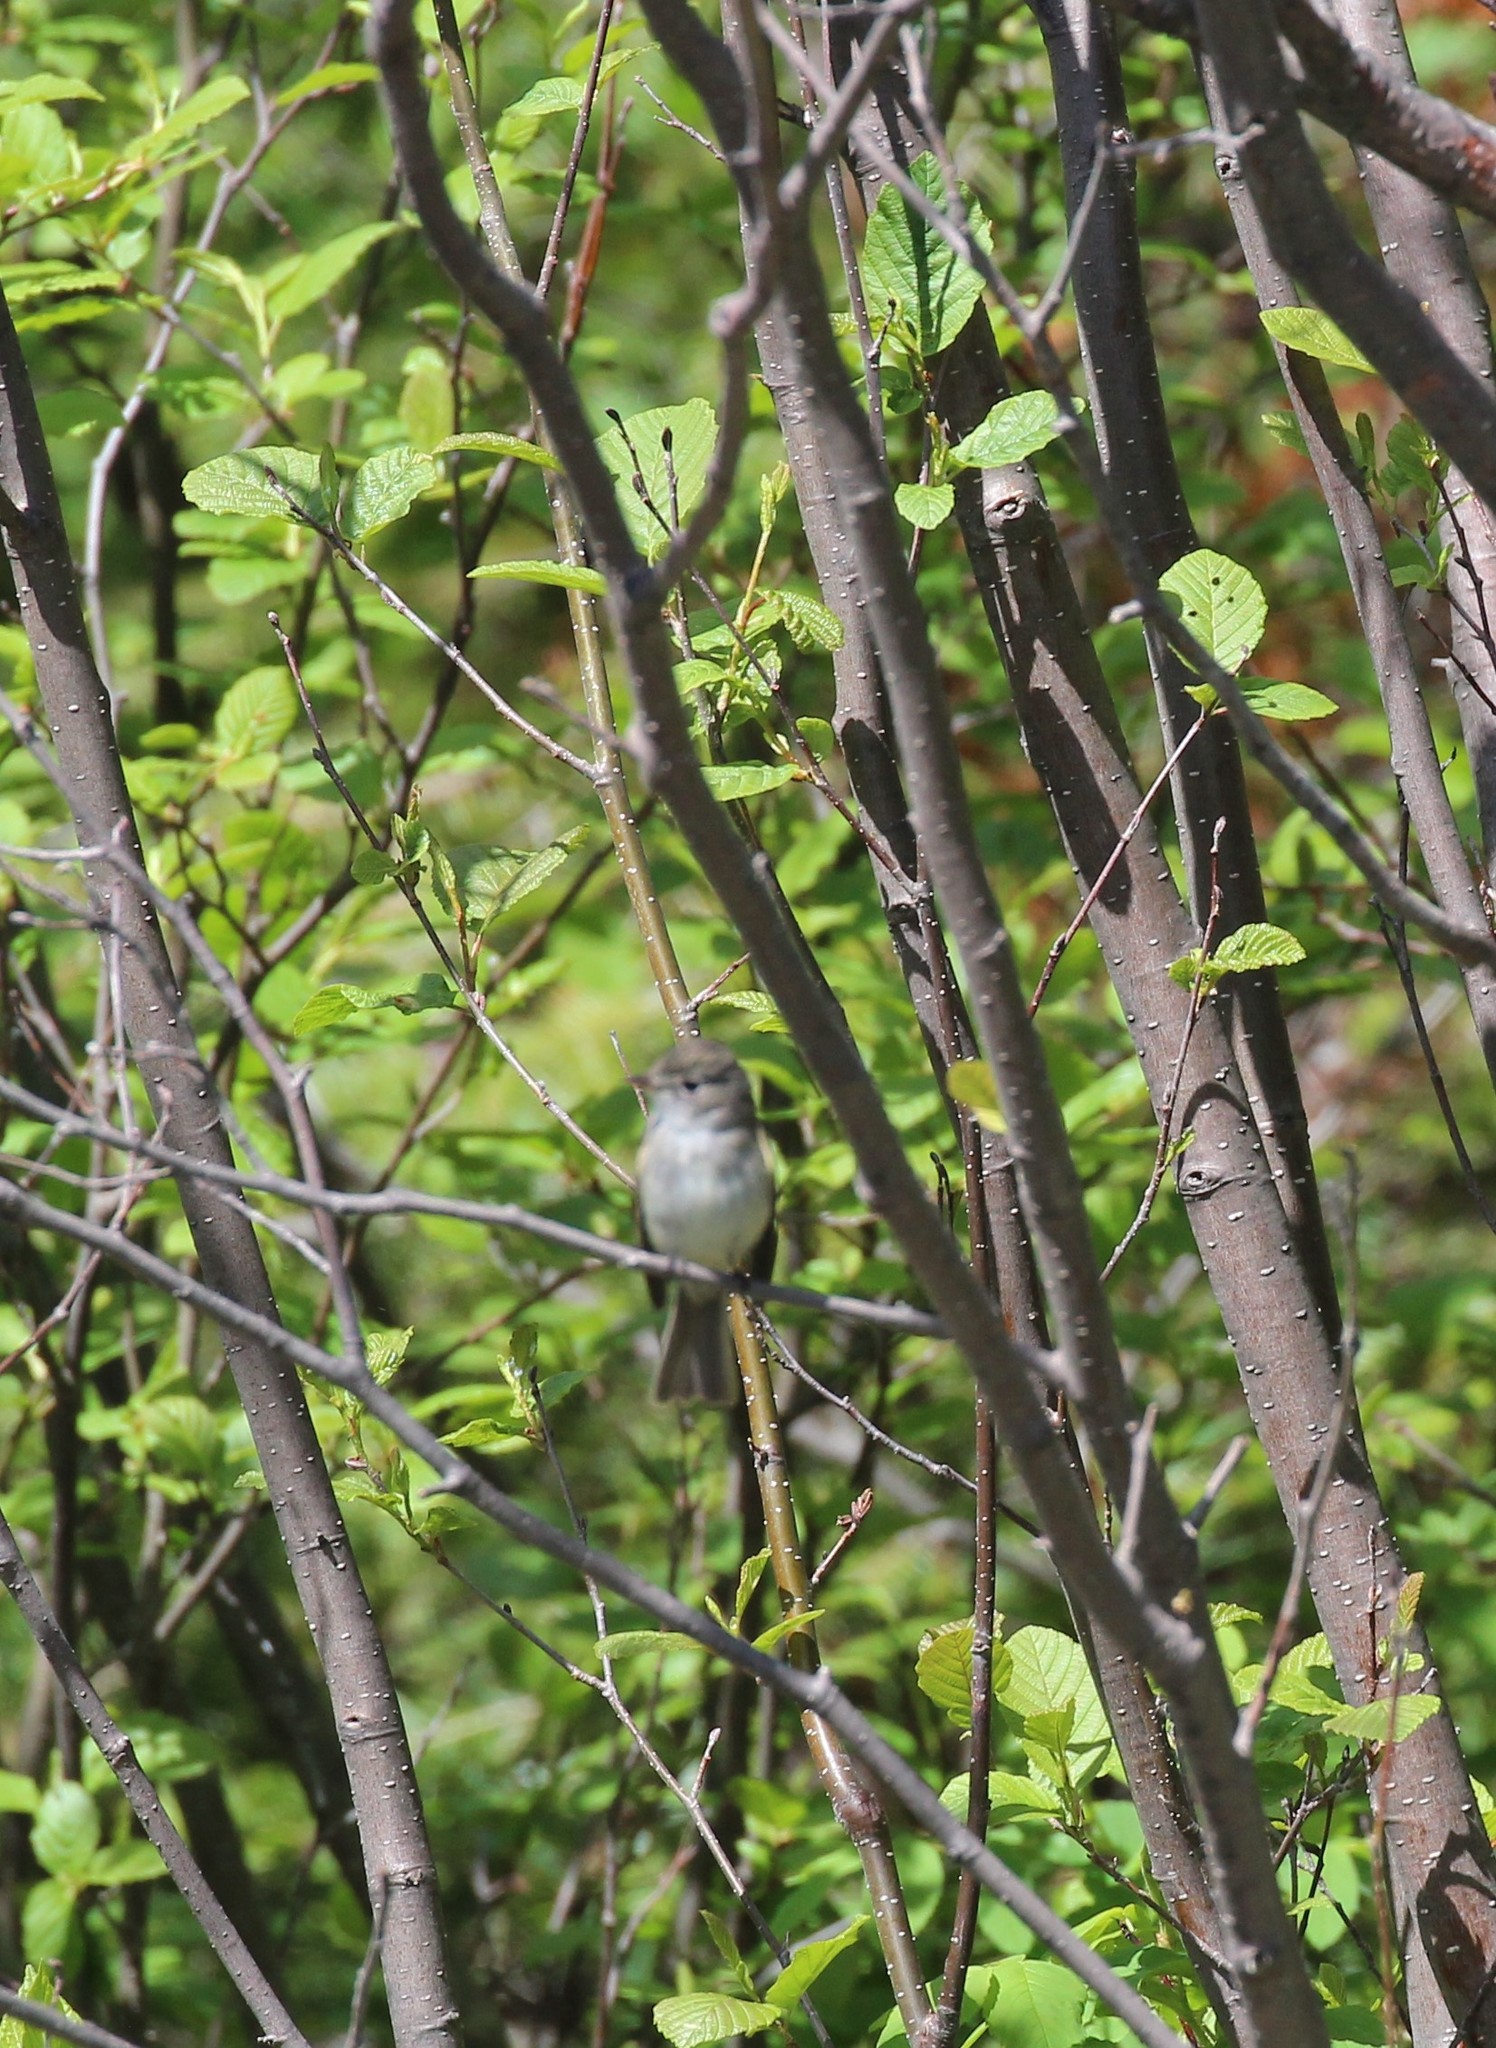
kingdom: Animalia
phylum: Chordata
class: Aves
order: Passeriformes
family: Tyrannidae
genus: Empidonax
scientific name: Empidonax minimus
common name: Least flycatcher
